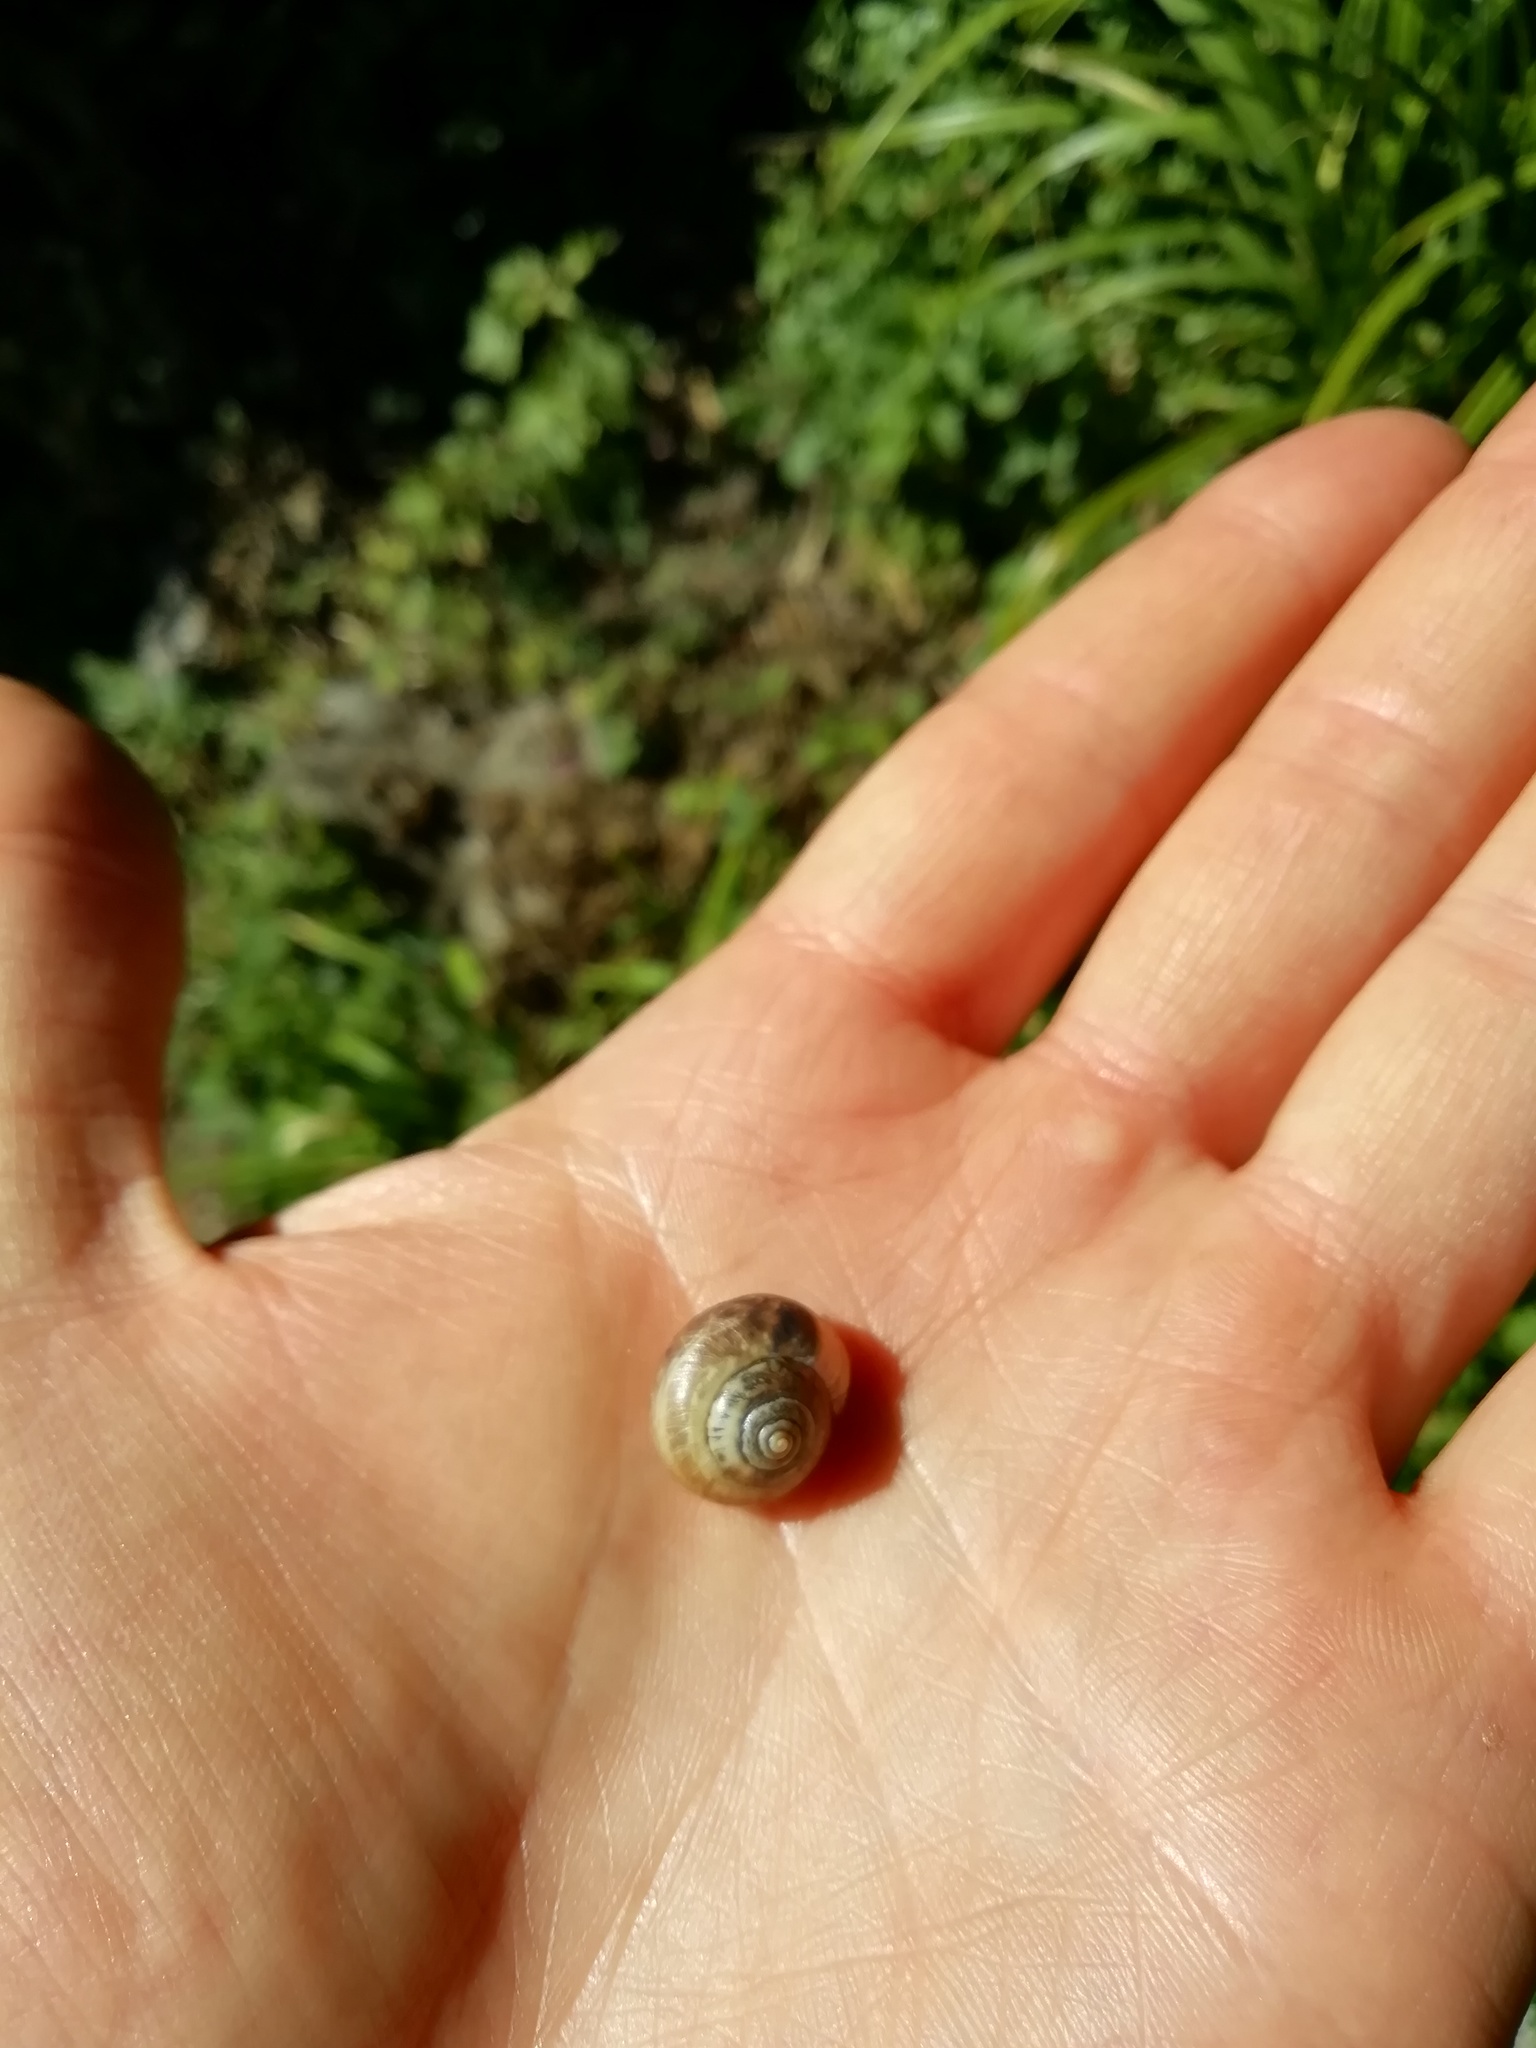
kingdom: Animalia
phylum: Mollusca
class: Gastropoda
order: Stylommatophora
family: Hygromiidae
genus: Monacha
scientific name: Monacha cantiana
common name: Kentish snail
